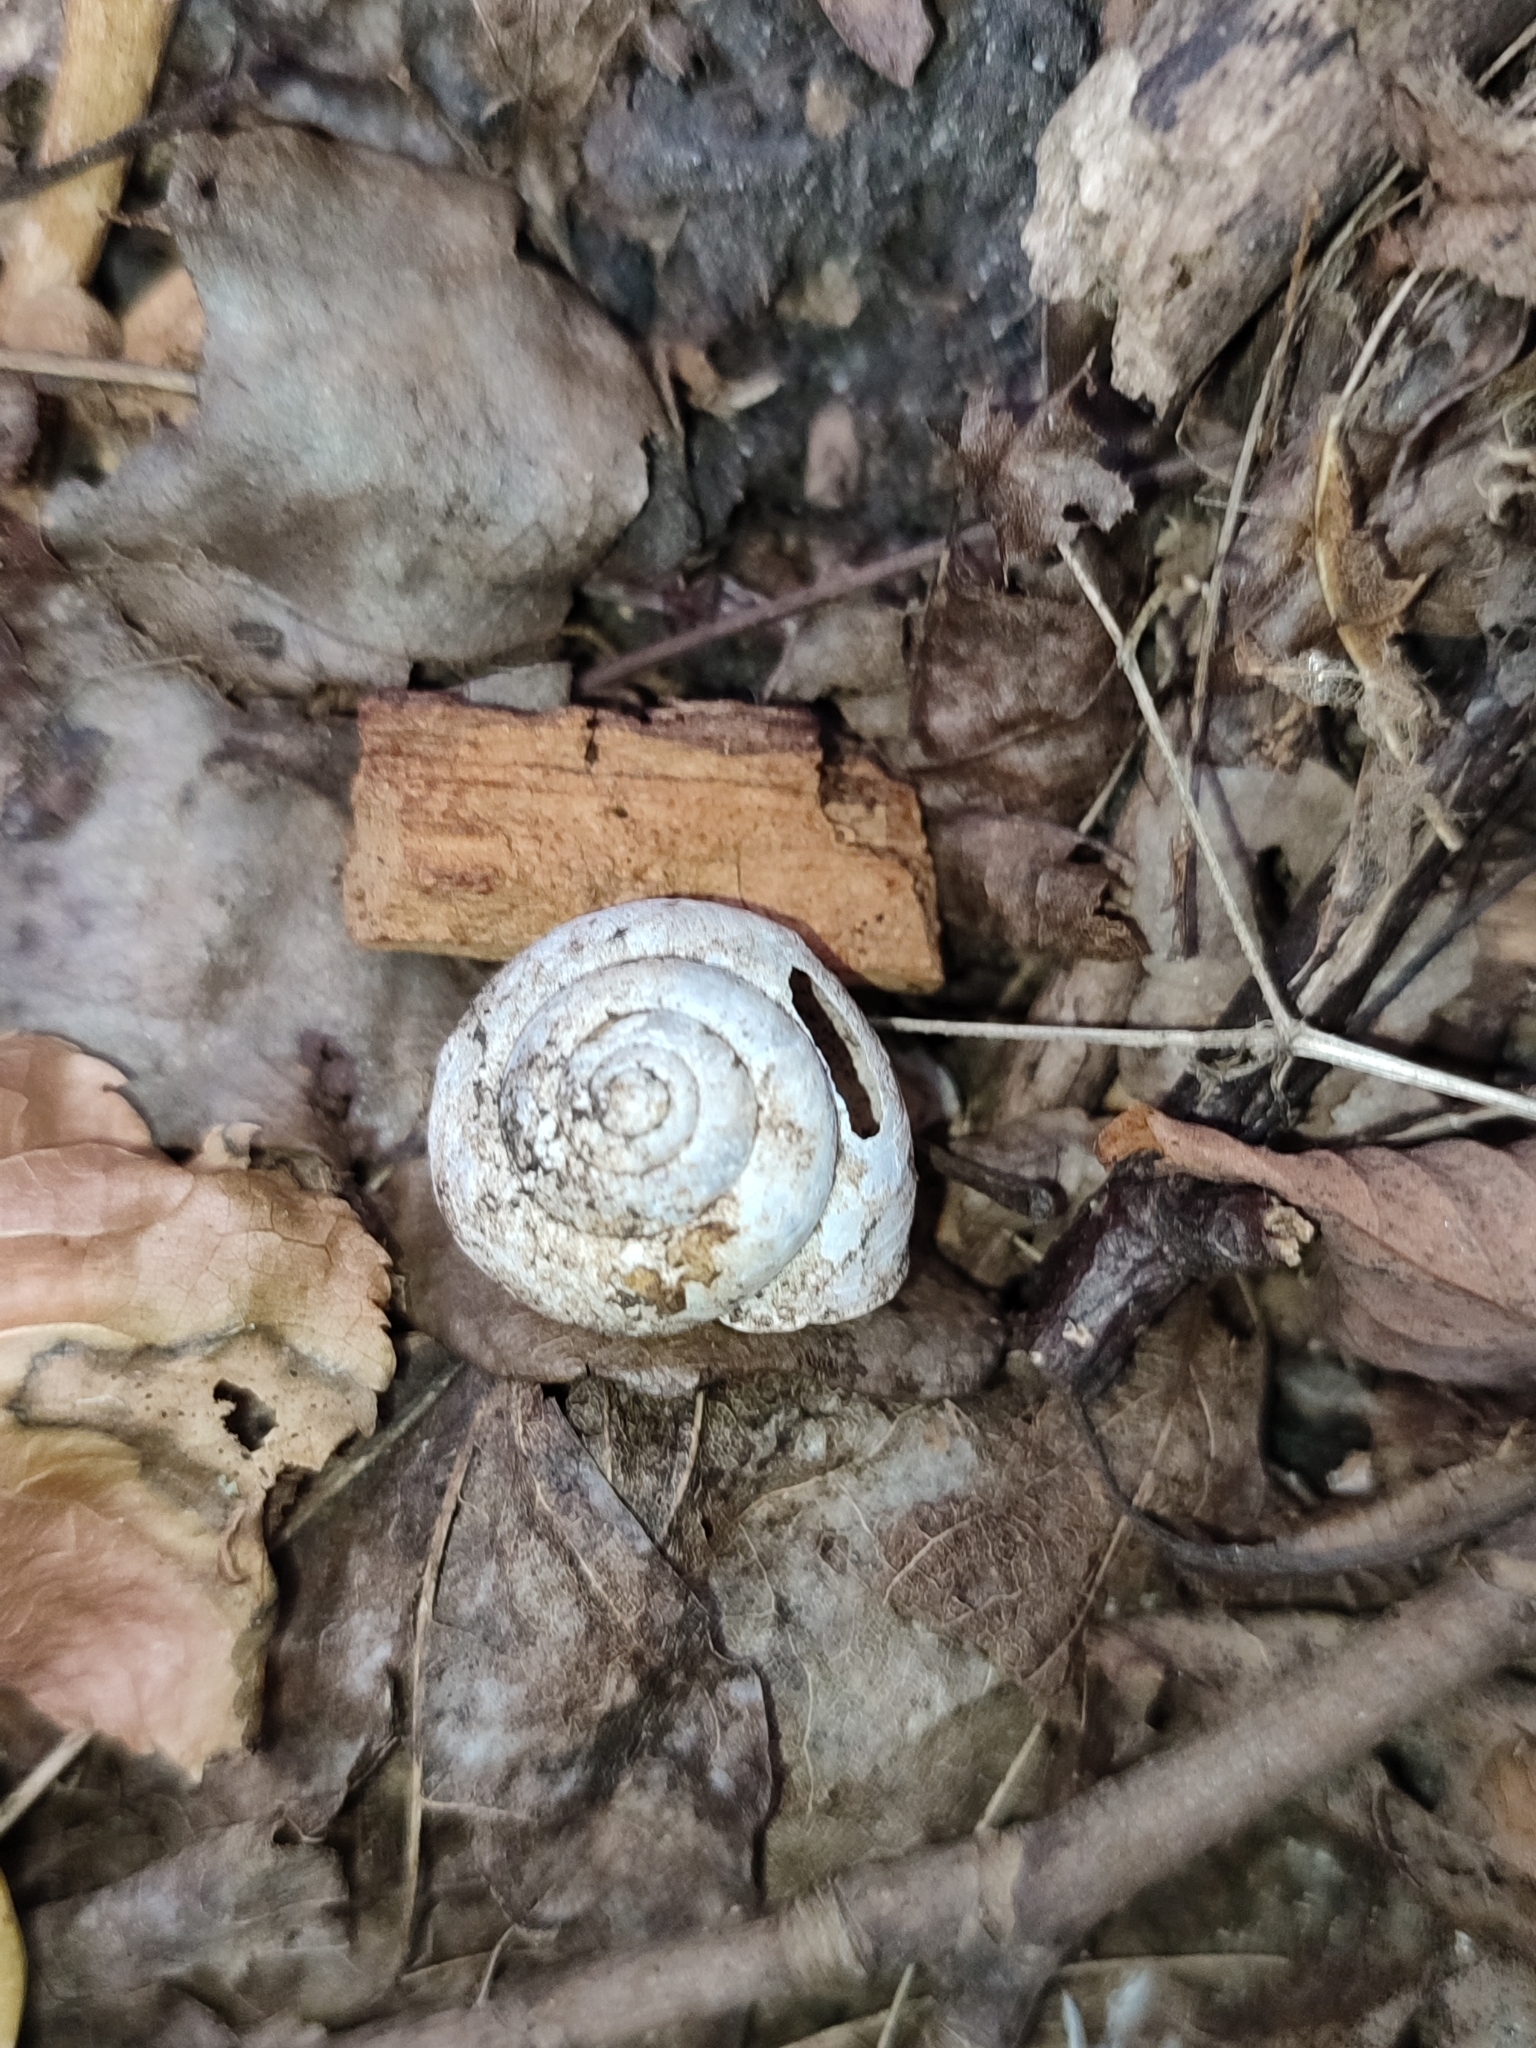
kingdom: Animalia
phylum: Mollusca
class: Gastropoda
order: Stylommatophora
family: Camaenidae
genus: Fruticicola
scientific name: Fruticicola fruticum
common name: Bush snail
